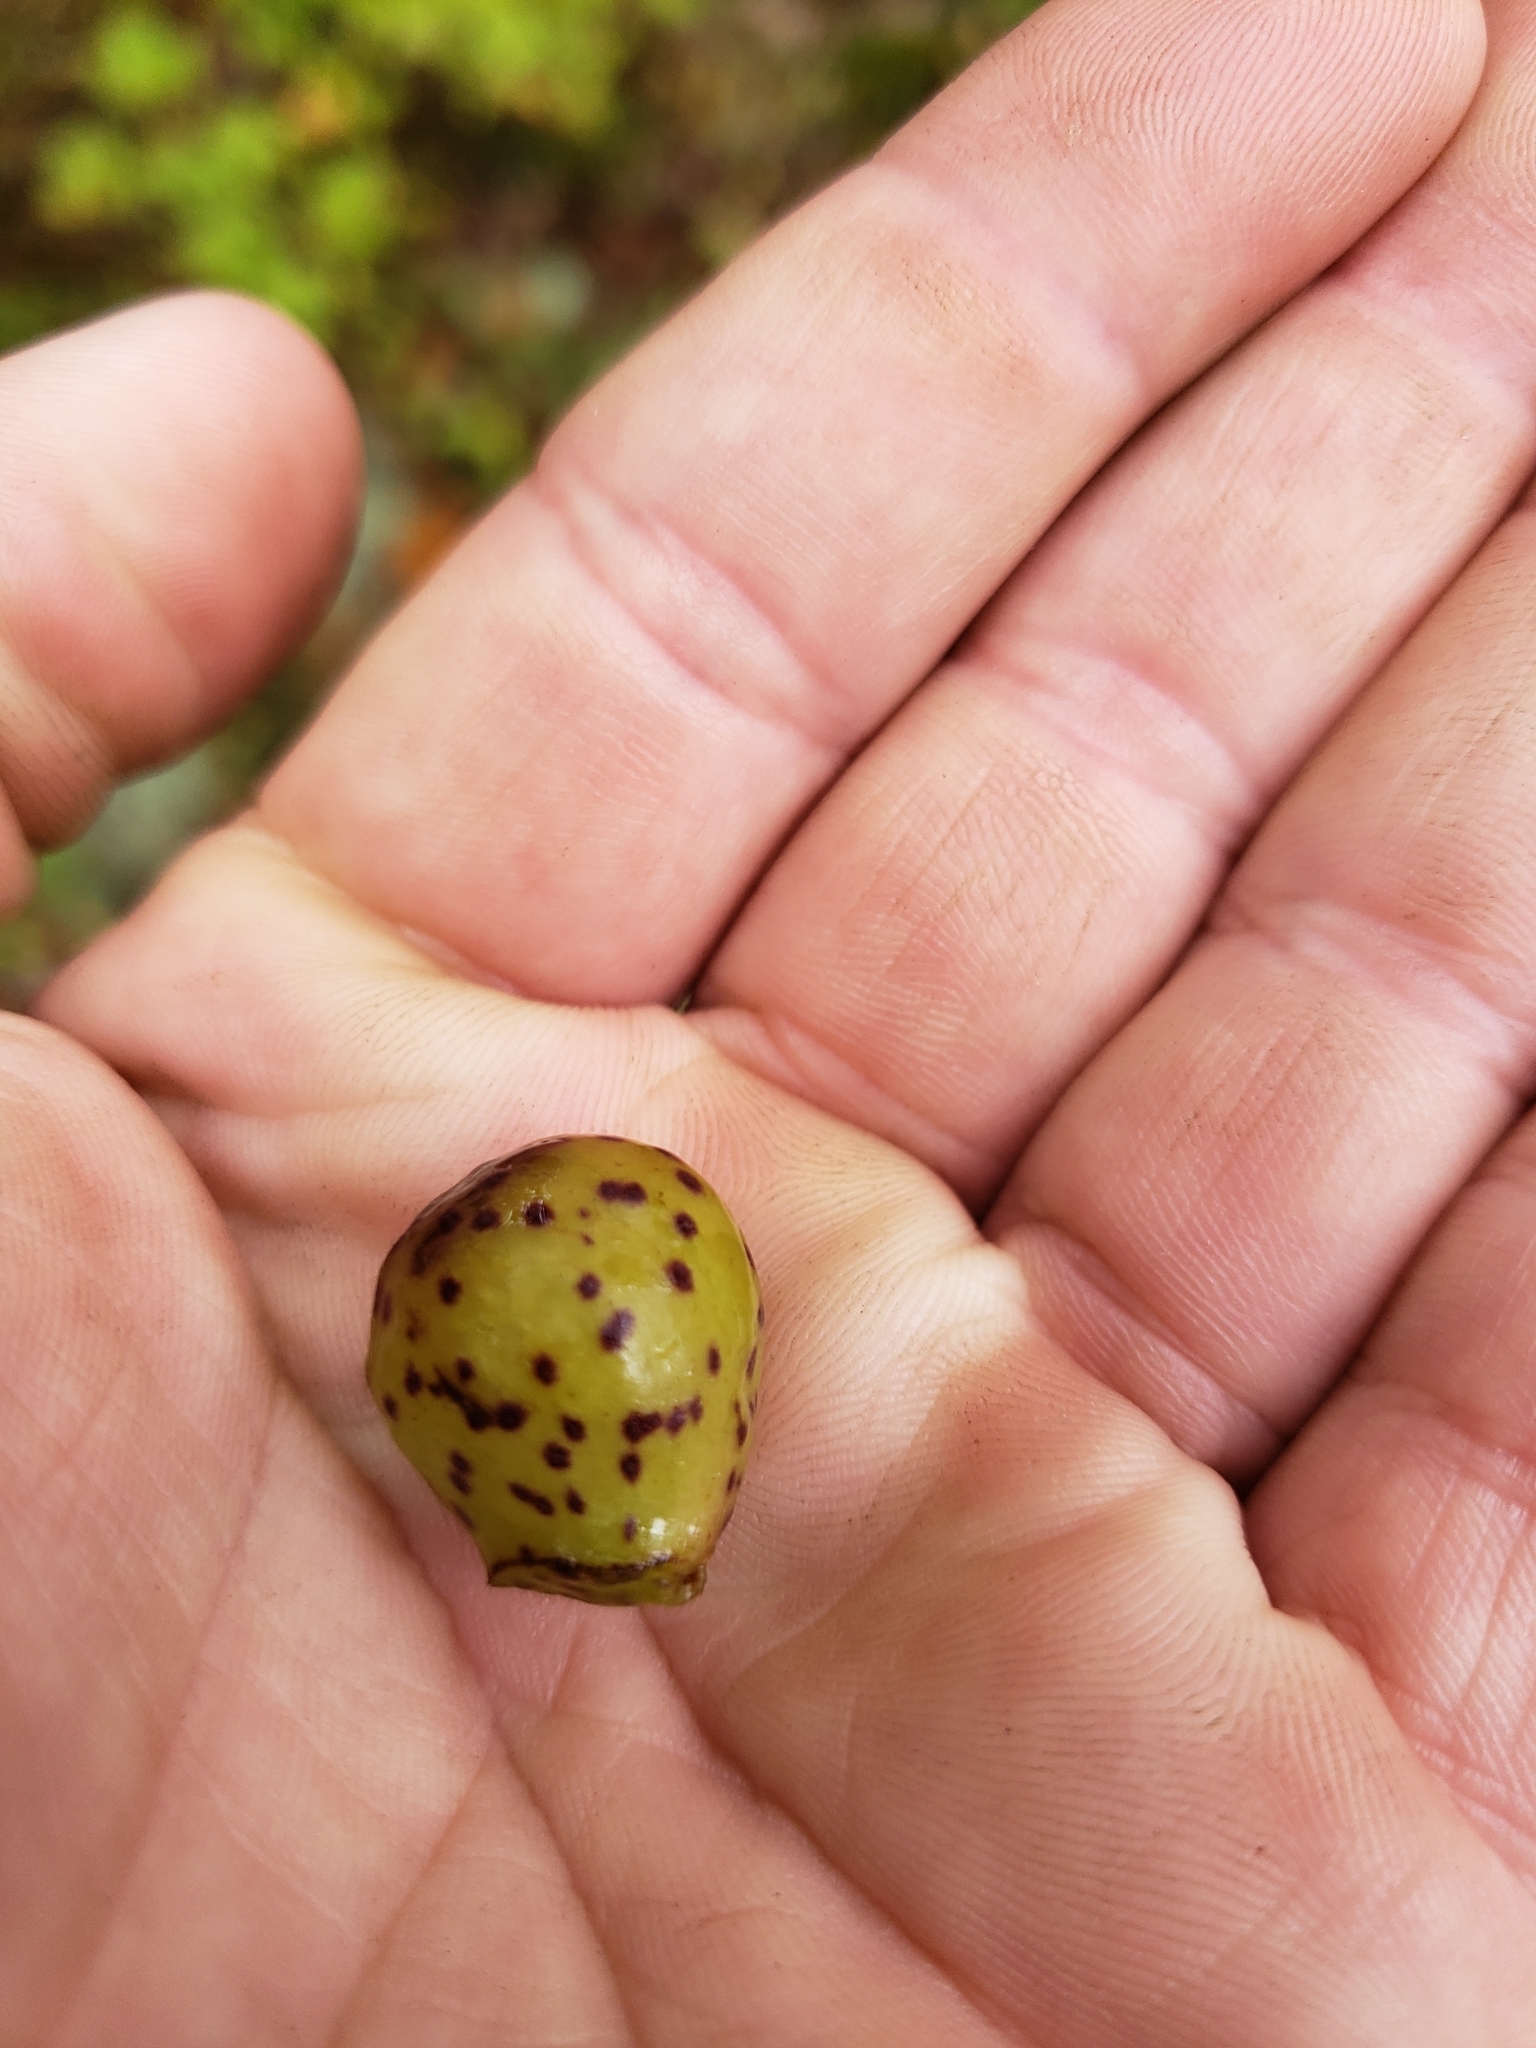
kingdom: Animalia
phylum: Arthropoda
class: Insecta
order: Hymenoptera
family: Cynipidae
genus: Amphibolips
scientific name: Amphibolips
